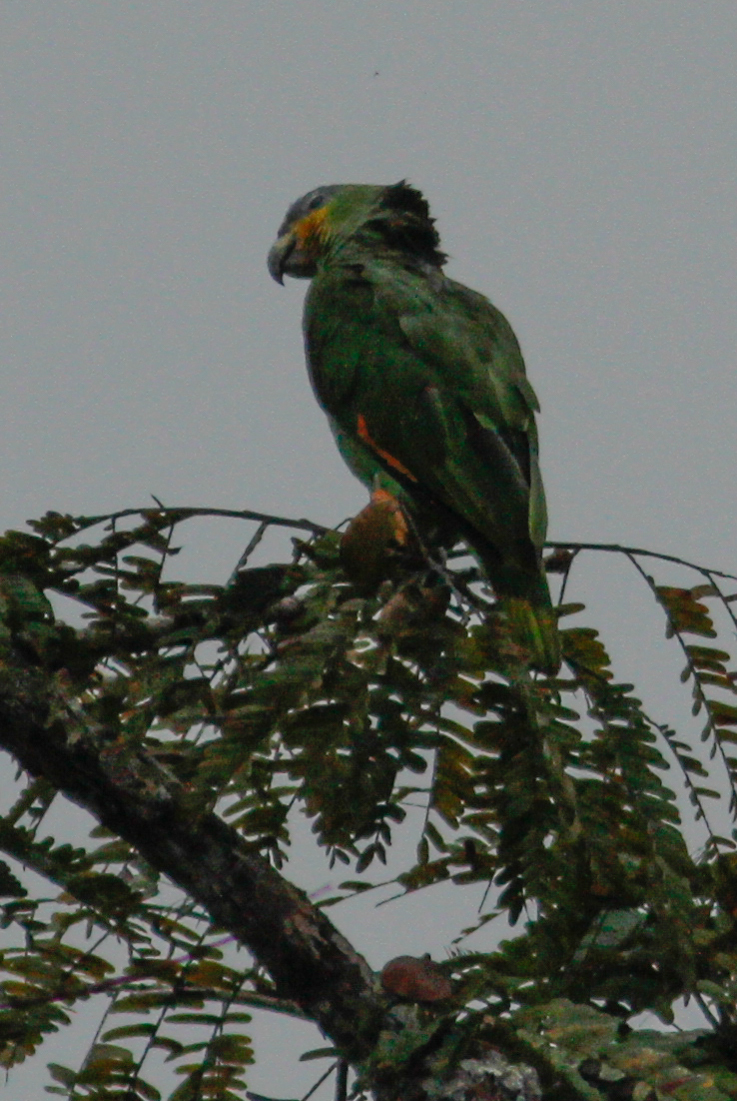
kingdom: Animalia
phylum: Chordata
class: Aves
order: Psittaciformes
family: Psittacidae
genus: Amazona
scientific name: Amazona amazonica
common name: Orange-winged amazon
